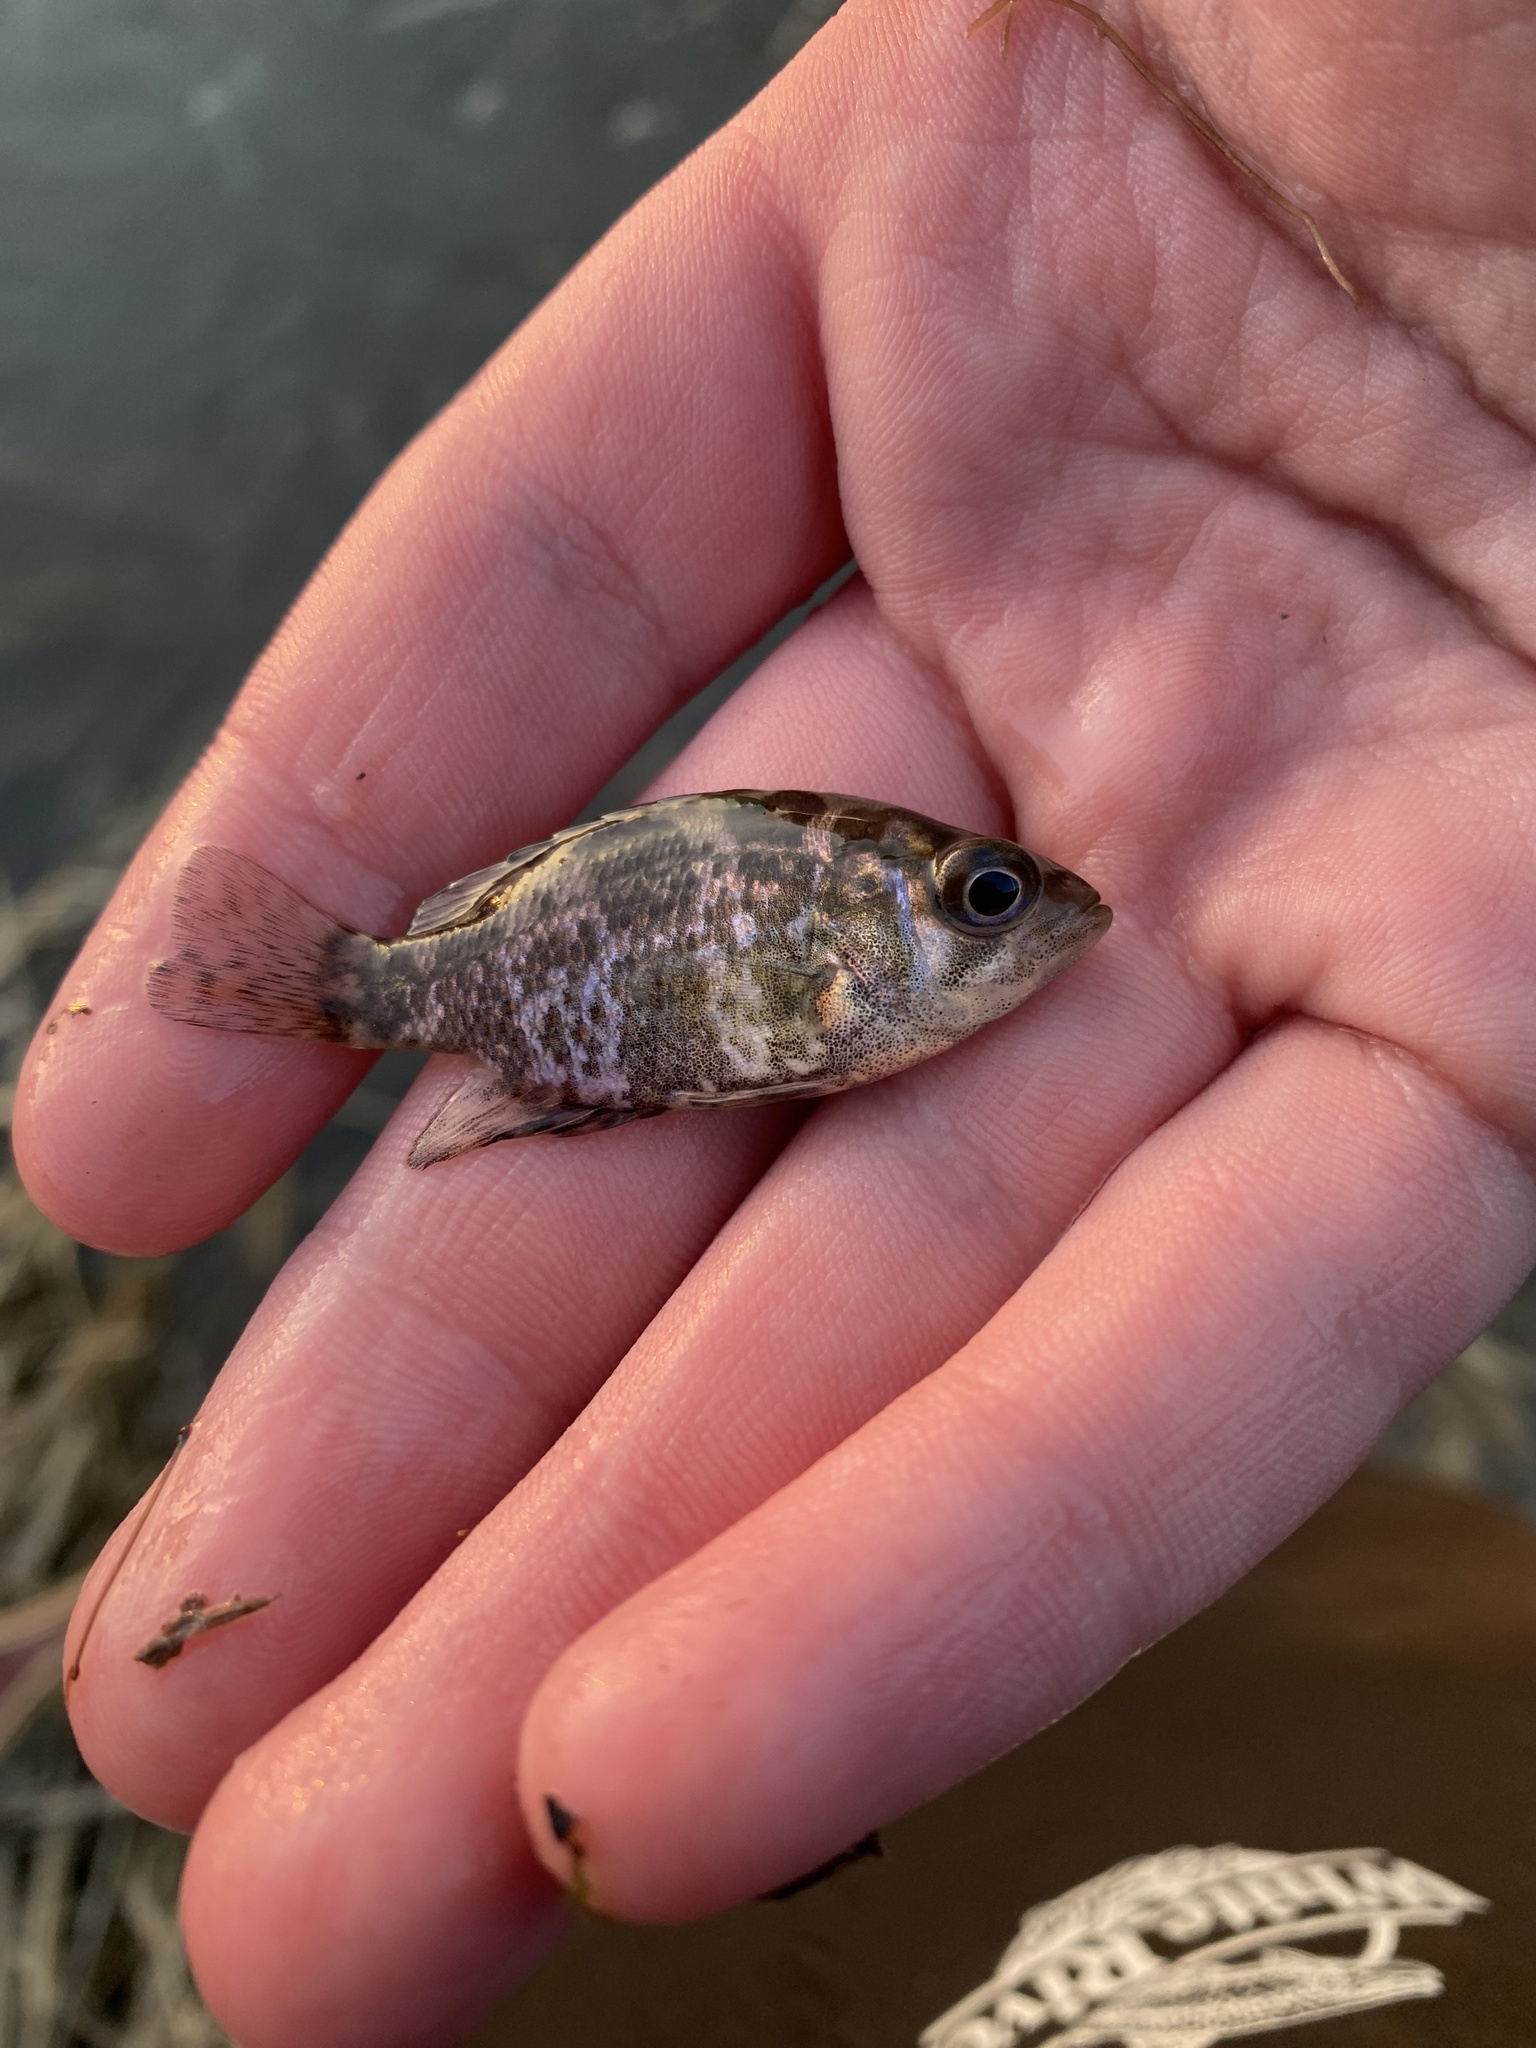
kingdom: Animalia
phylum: Chordata
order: Perciformes
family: Centrarchidae
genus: Ambloplites
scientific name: Ambloplites rupestris
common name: Rock bass
